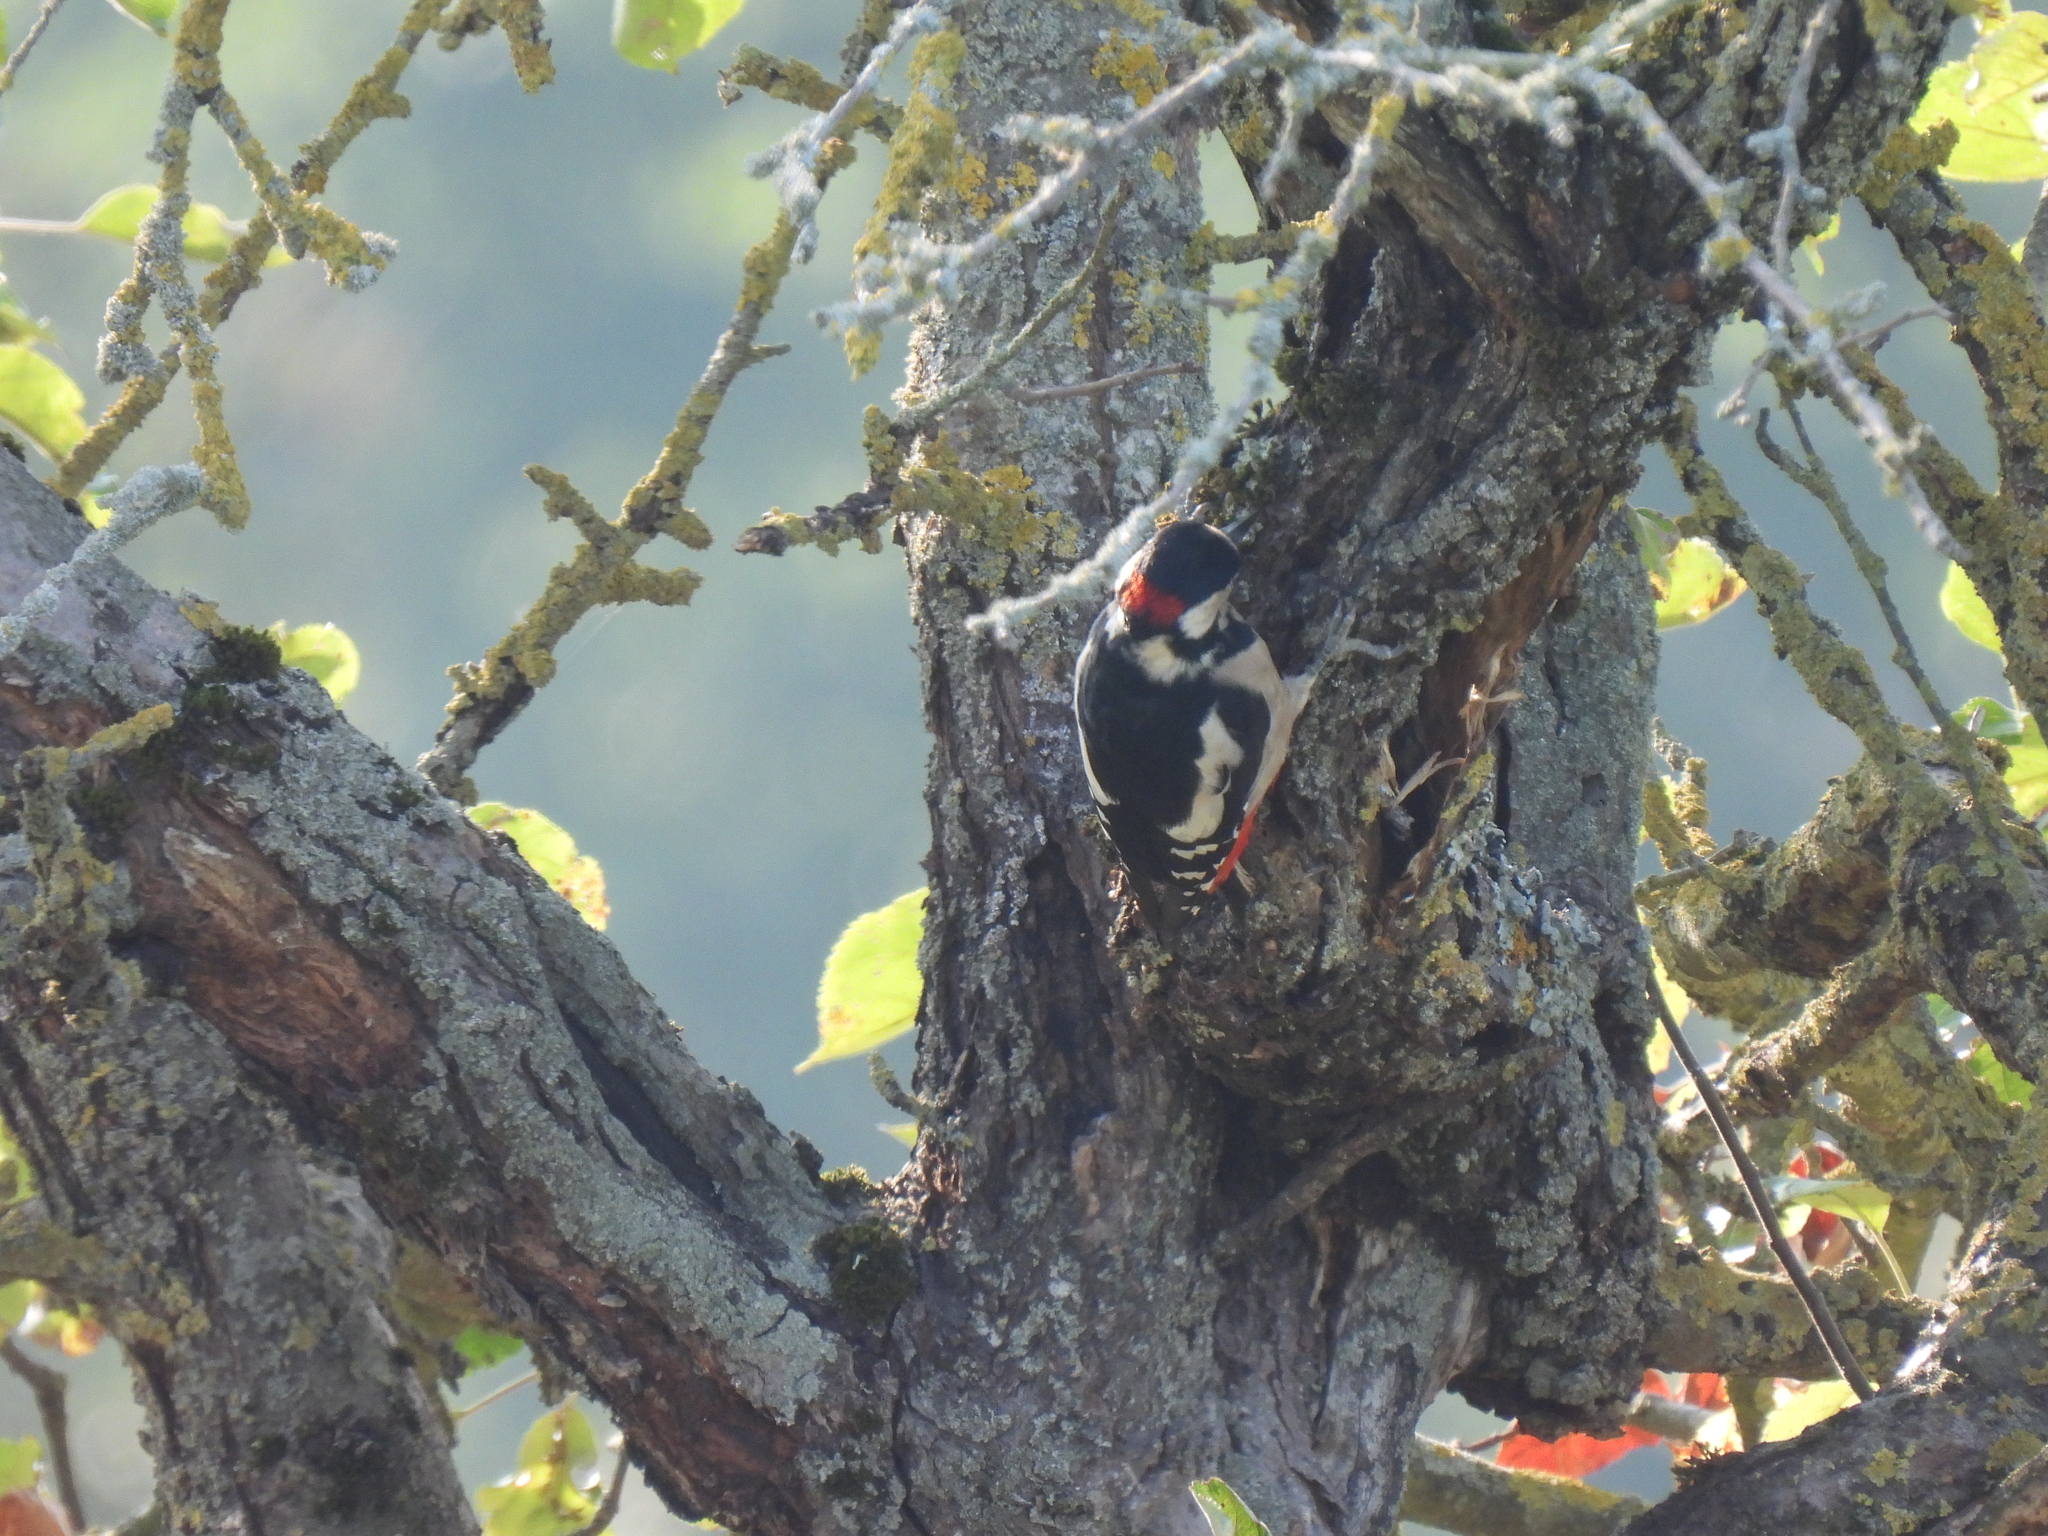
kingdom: Animalia
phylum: Chordata
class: Aves
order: Piciformes
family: Picidae
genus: Dendrocopos
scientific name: Dendrocopos major
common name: Great spotted woodpecker
